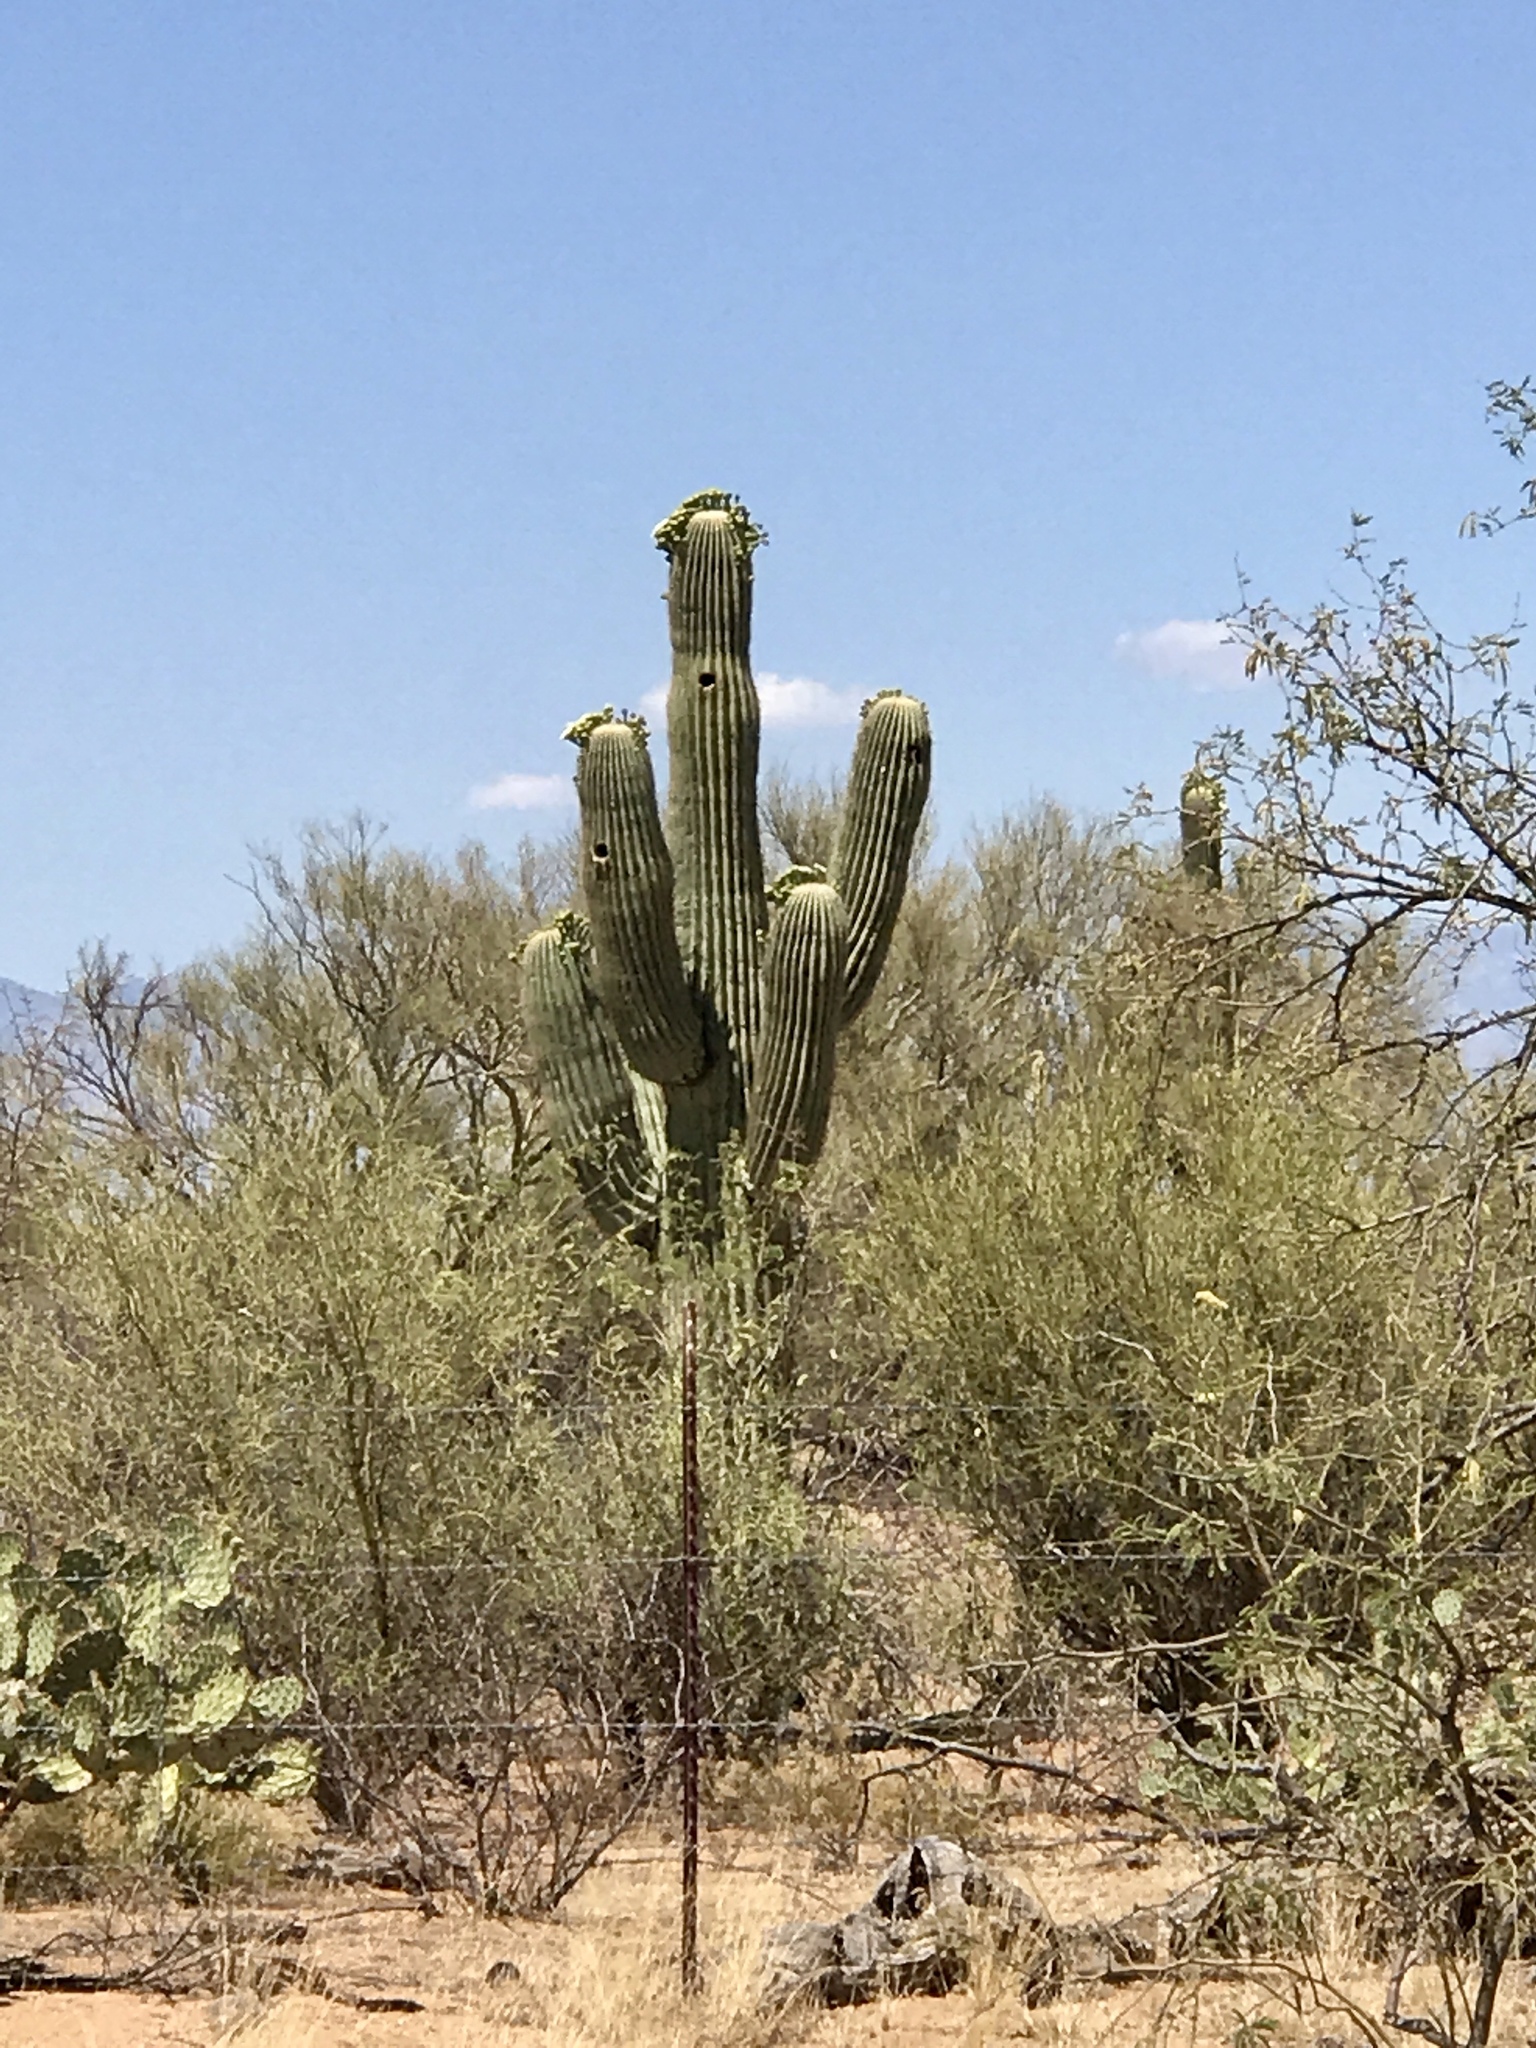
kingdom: Plantae
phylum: Tracheophyta
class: Magnoliopsida
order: Caryophyllales
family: Cactaceae
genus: Carnegiea
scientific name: Carnegiea gigantea
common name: Saguaro
